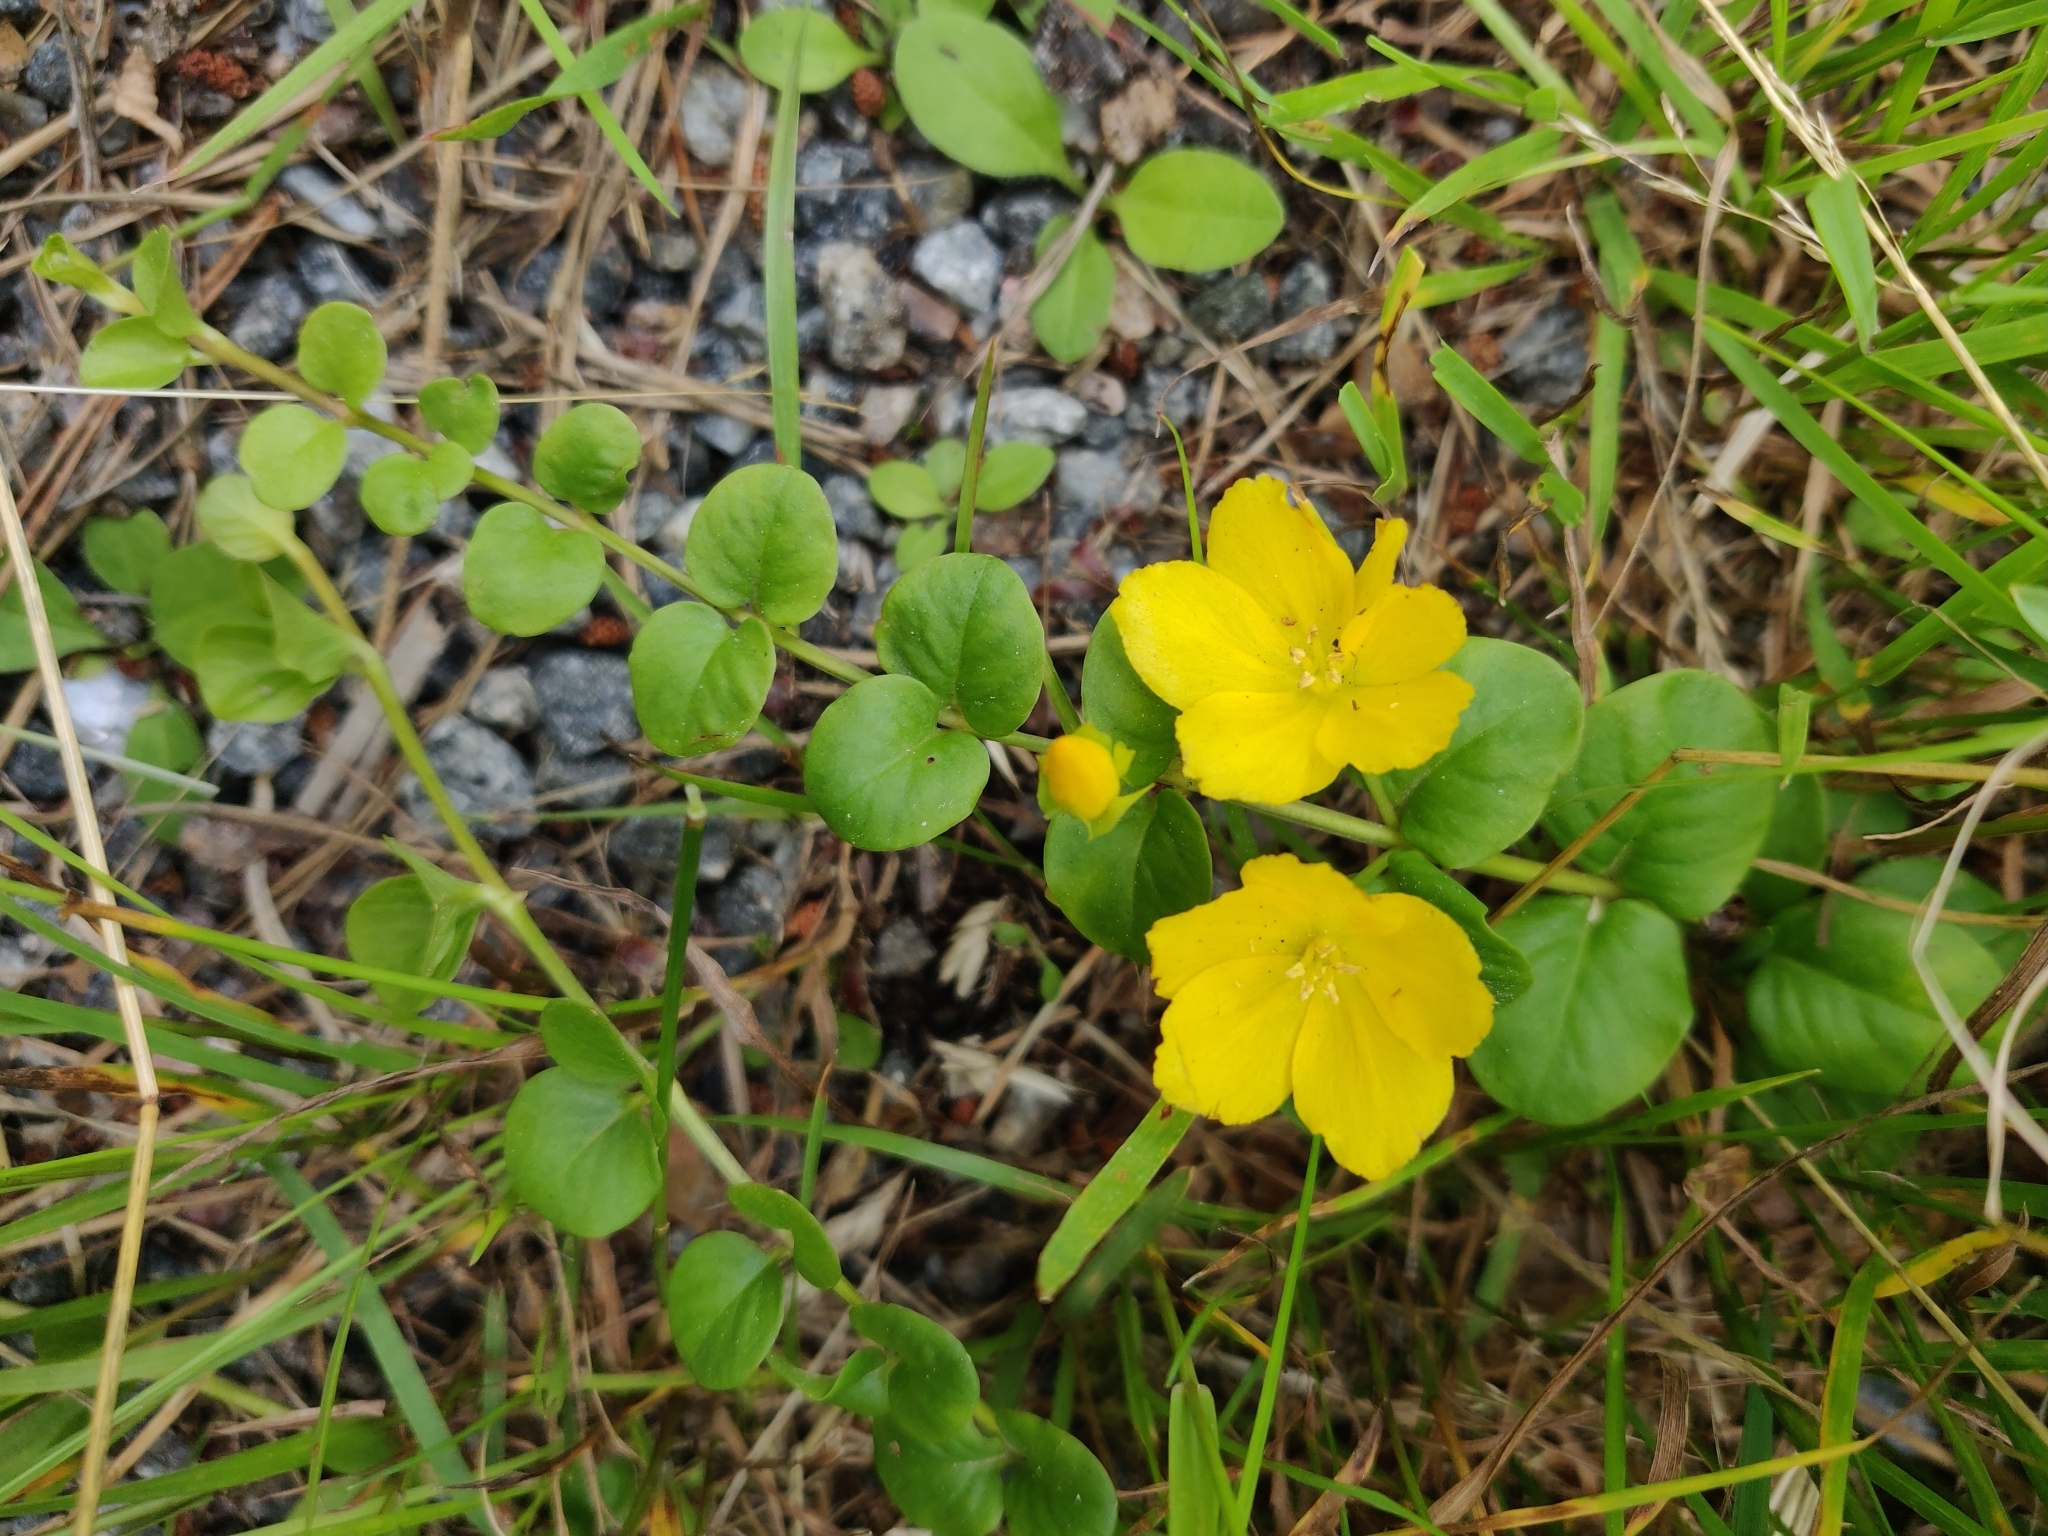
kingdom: Plantae
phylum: Tracheophyta
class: Magnoliopsida
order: Ericales
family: Primulaceae
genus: Lysimachia
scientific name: Lysimachia nummularia
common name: Moneywort
